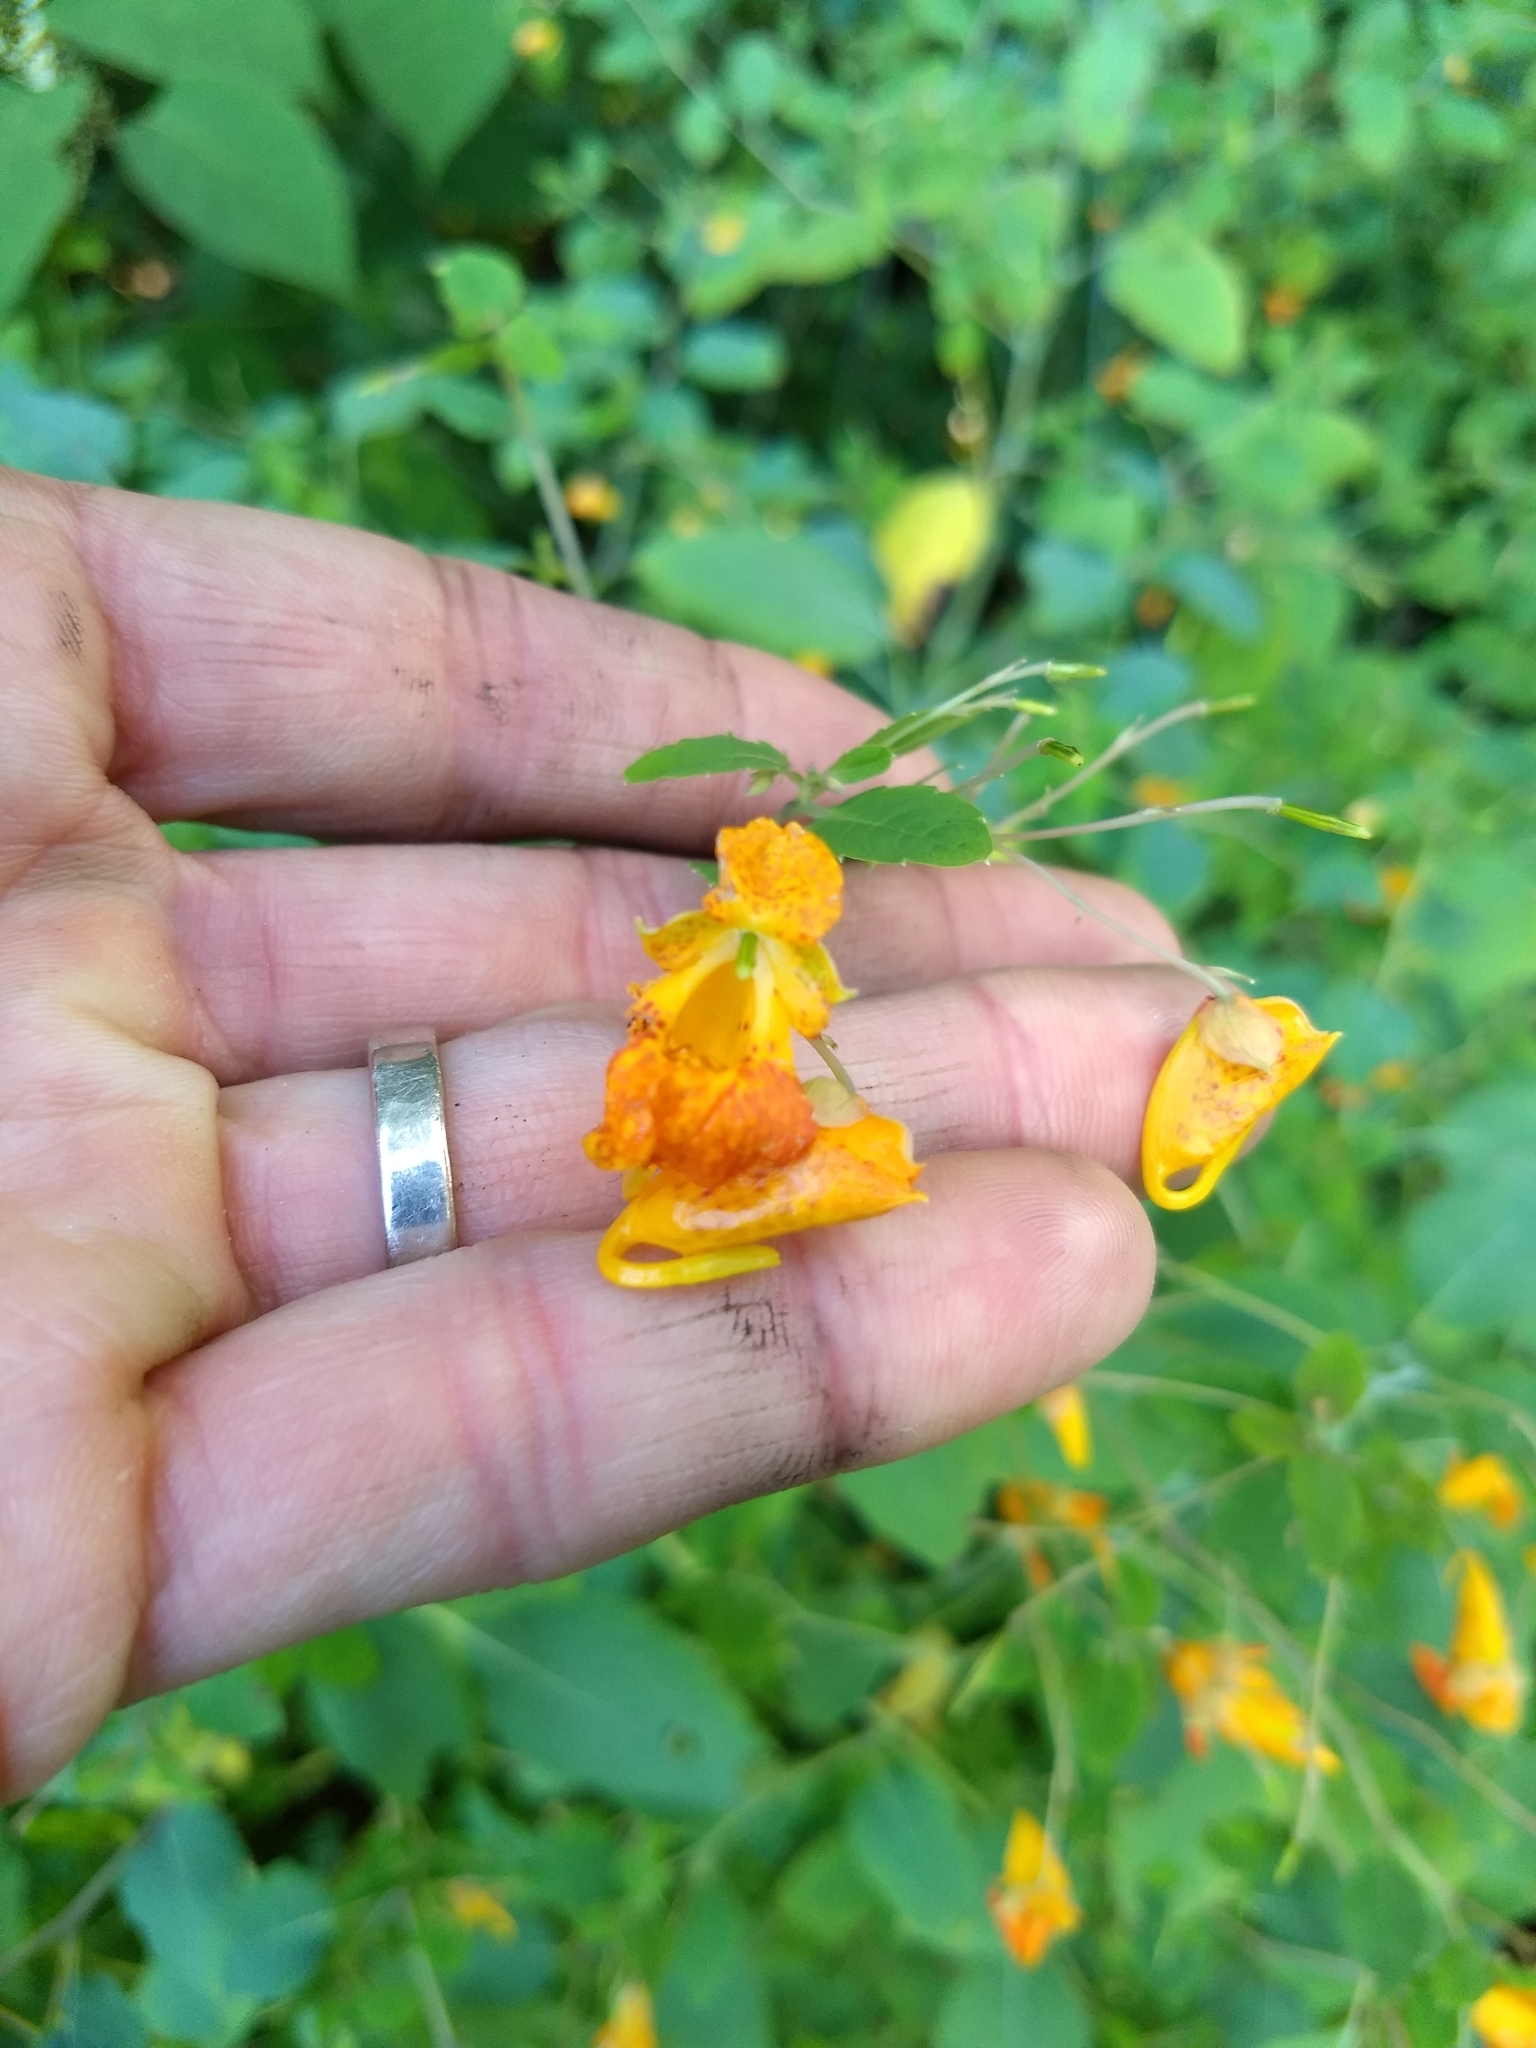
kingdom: Plantae
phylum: Tracheophyta
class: Magnoliopsida
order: Ericales
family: Balsaminaceae
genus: Impatiens
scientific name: Impatiens capensis
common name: Orange balsam
